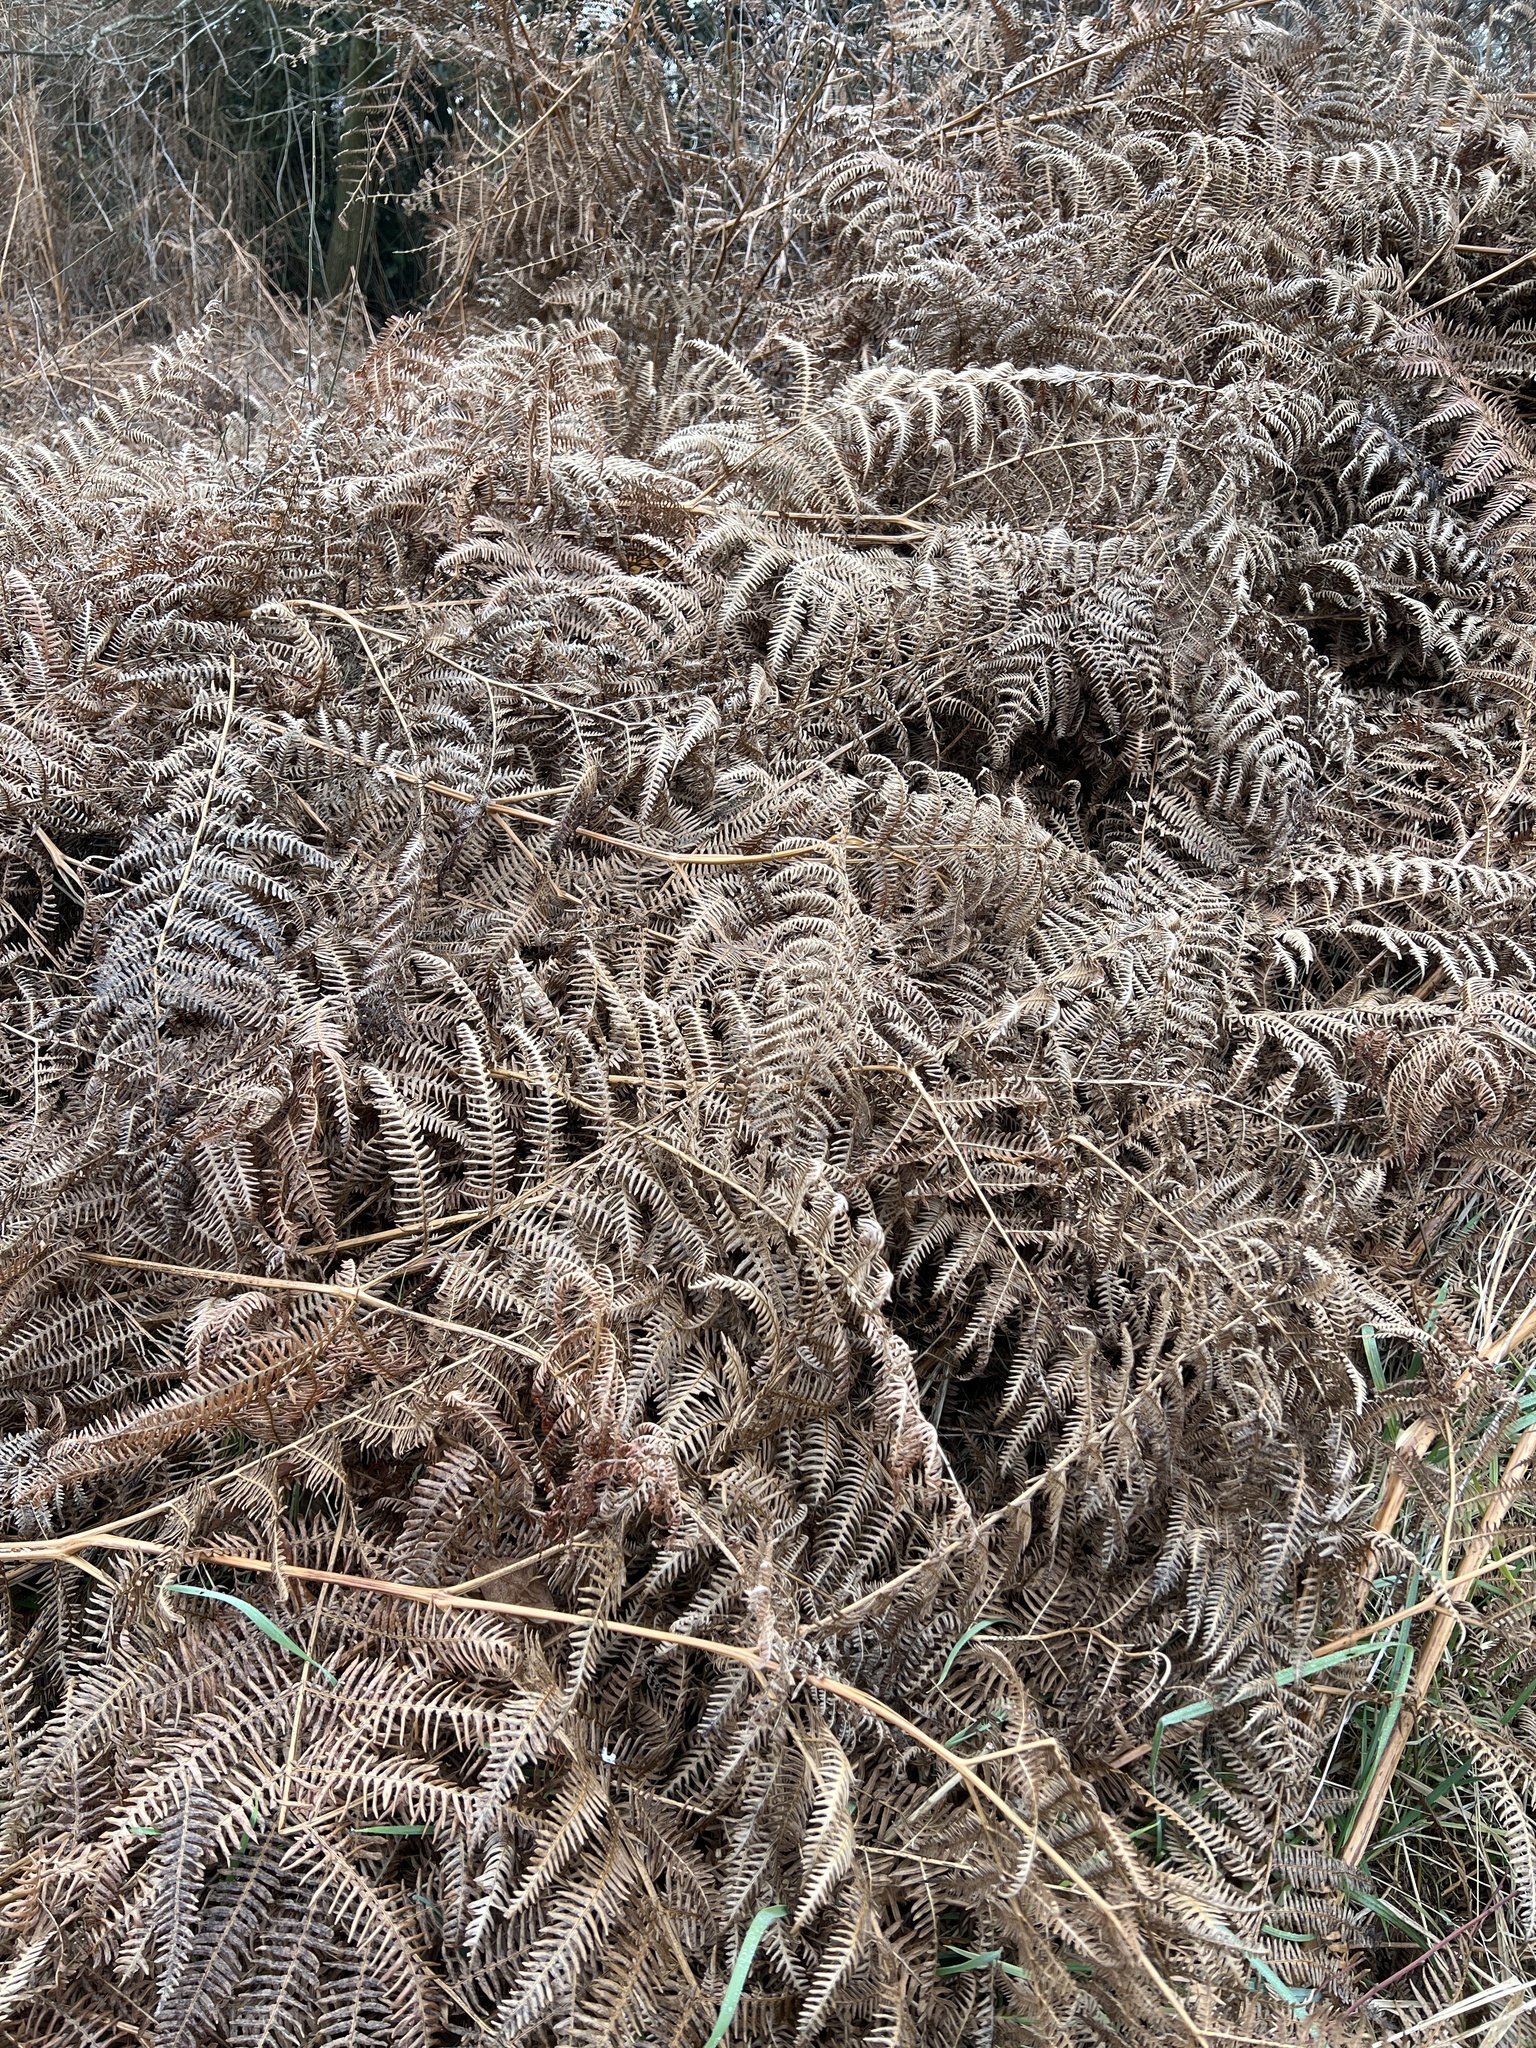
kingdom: Plantae
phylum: Tracheophyta
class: Polypodiopsida
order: Polypodiales
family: Dennstaedtiaceae
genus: Pteridium
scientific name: Pteridium aquilinum
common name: Bracken
